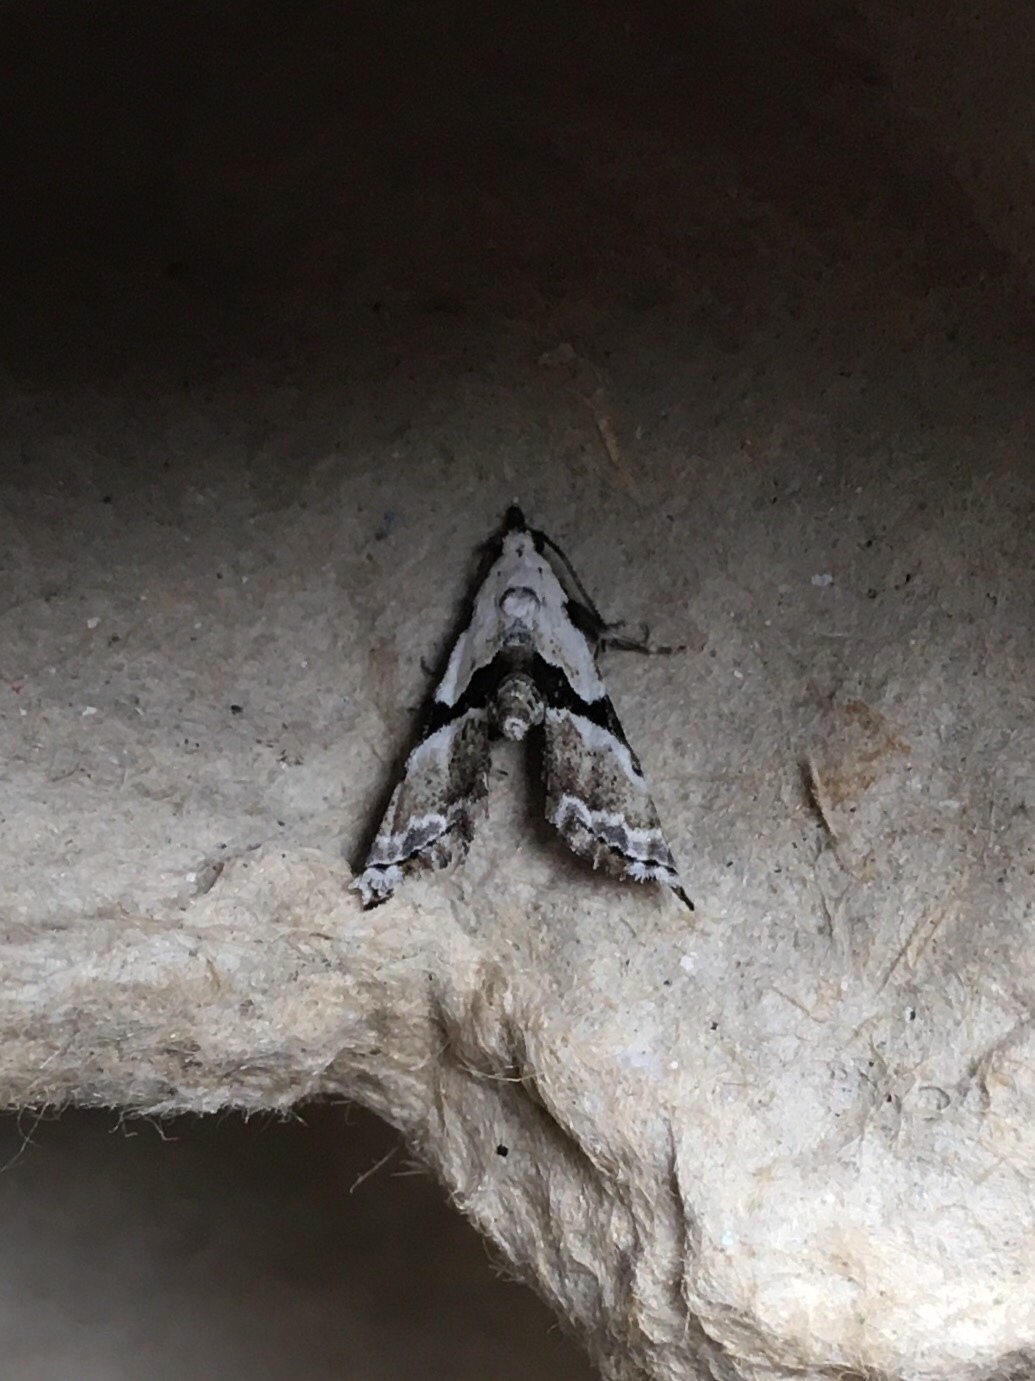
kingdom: Animalia
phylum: Arthropoda
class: Insecta
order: Lepidoptera
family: Noctuidae
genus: Nigetia
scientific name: Nigetia formosalis
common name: Thin-winged owlet
